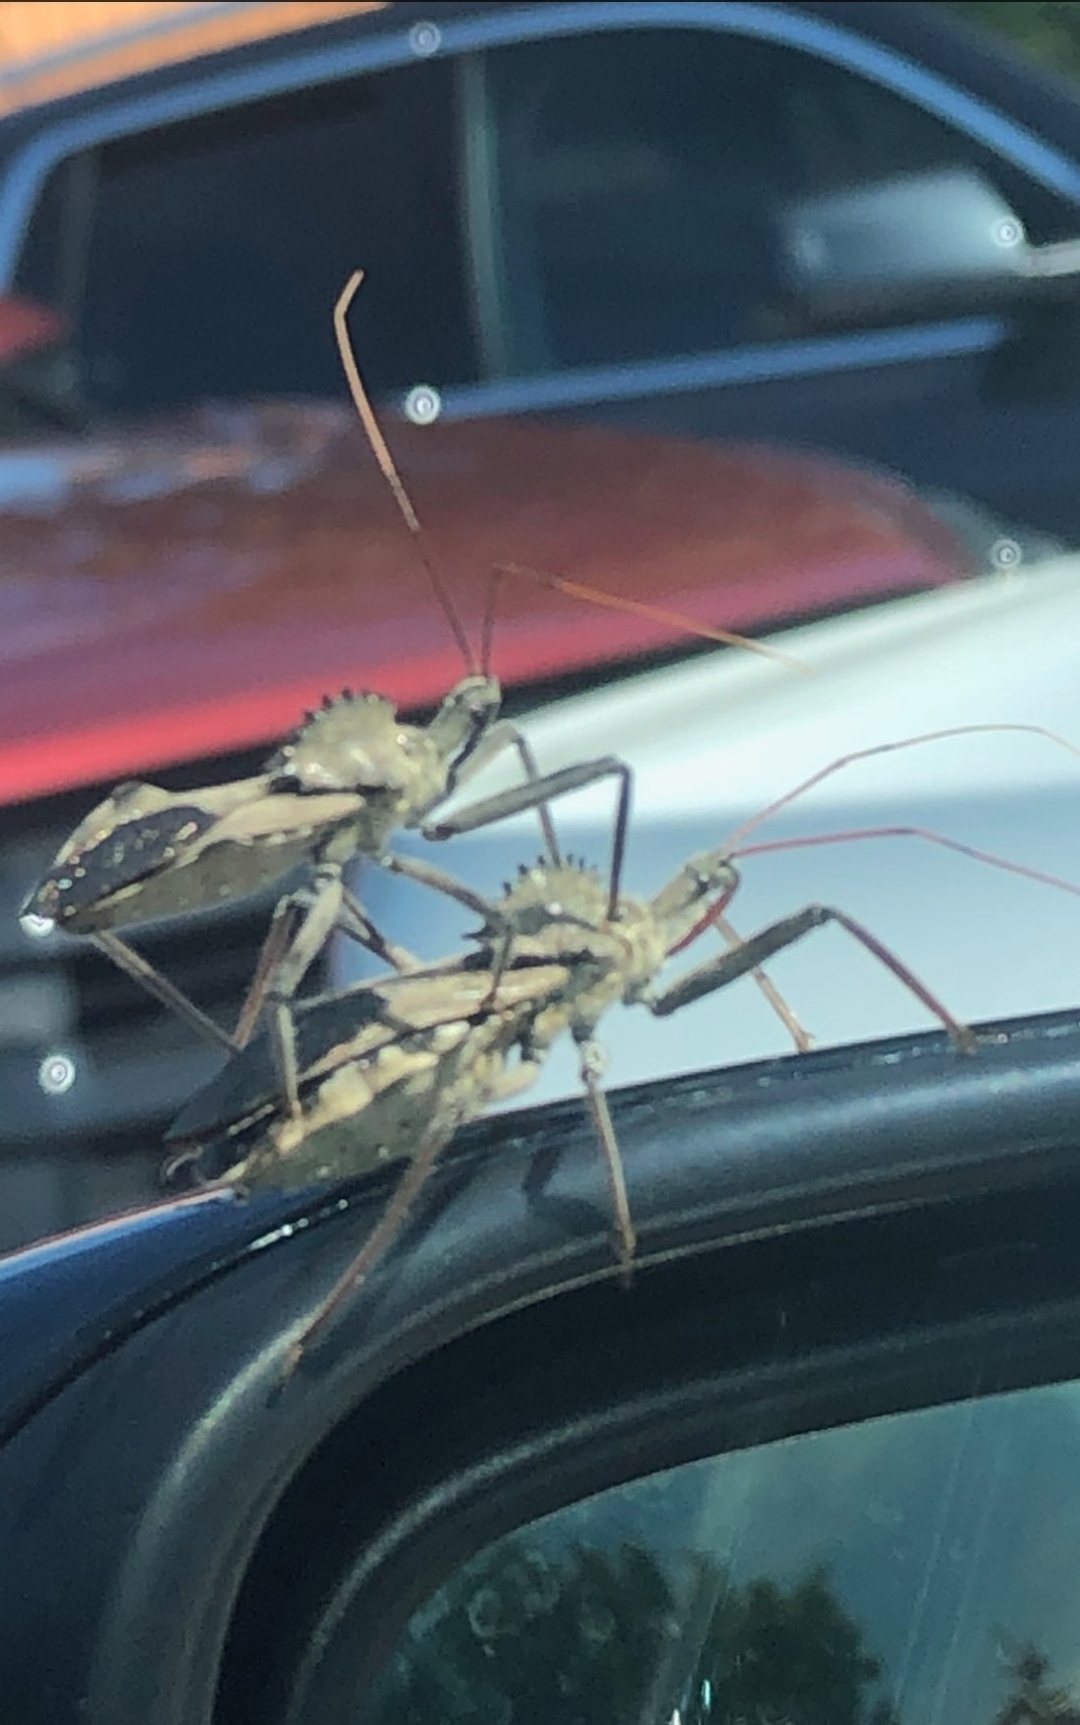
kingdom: Animalia
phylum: Arthropoda
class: Insecta
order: Hemiptera
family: Reduviidae
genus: Arilus
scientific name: Arilus cristatus
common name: North american wheel bug
